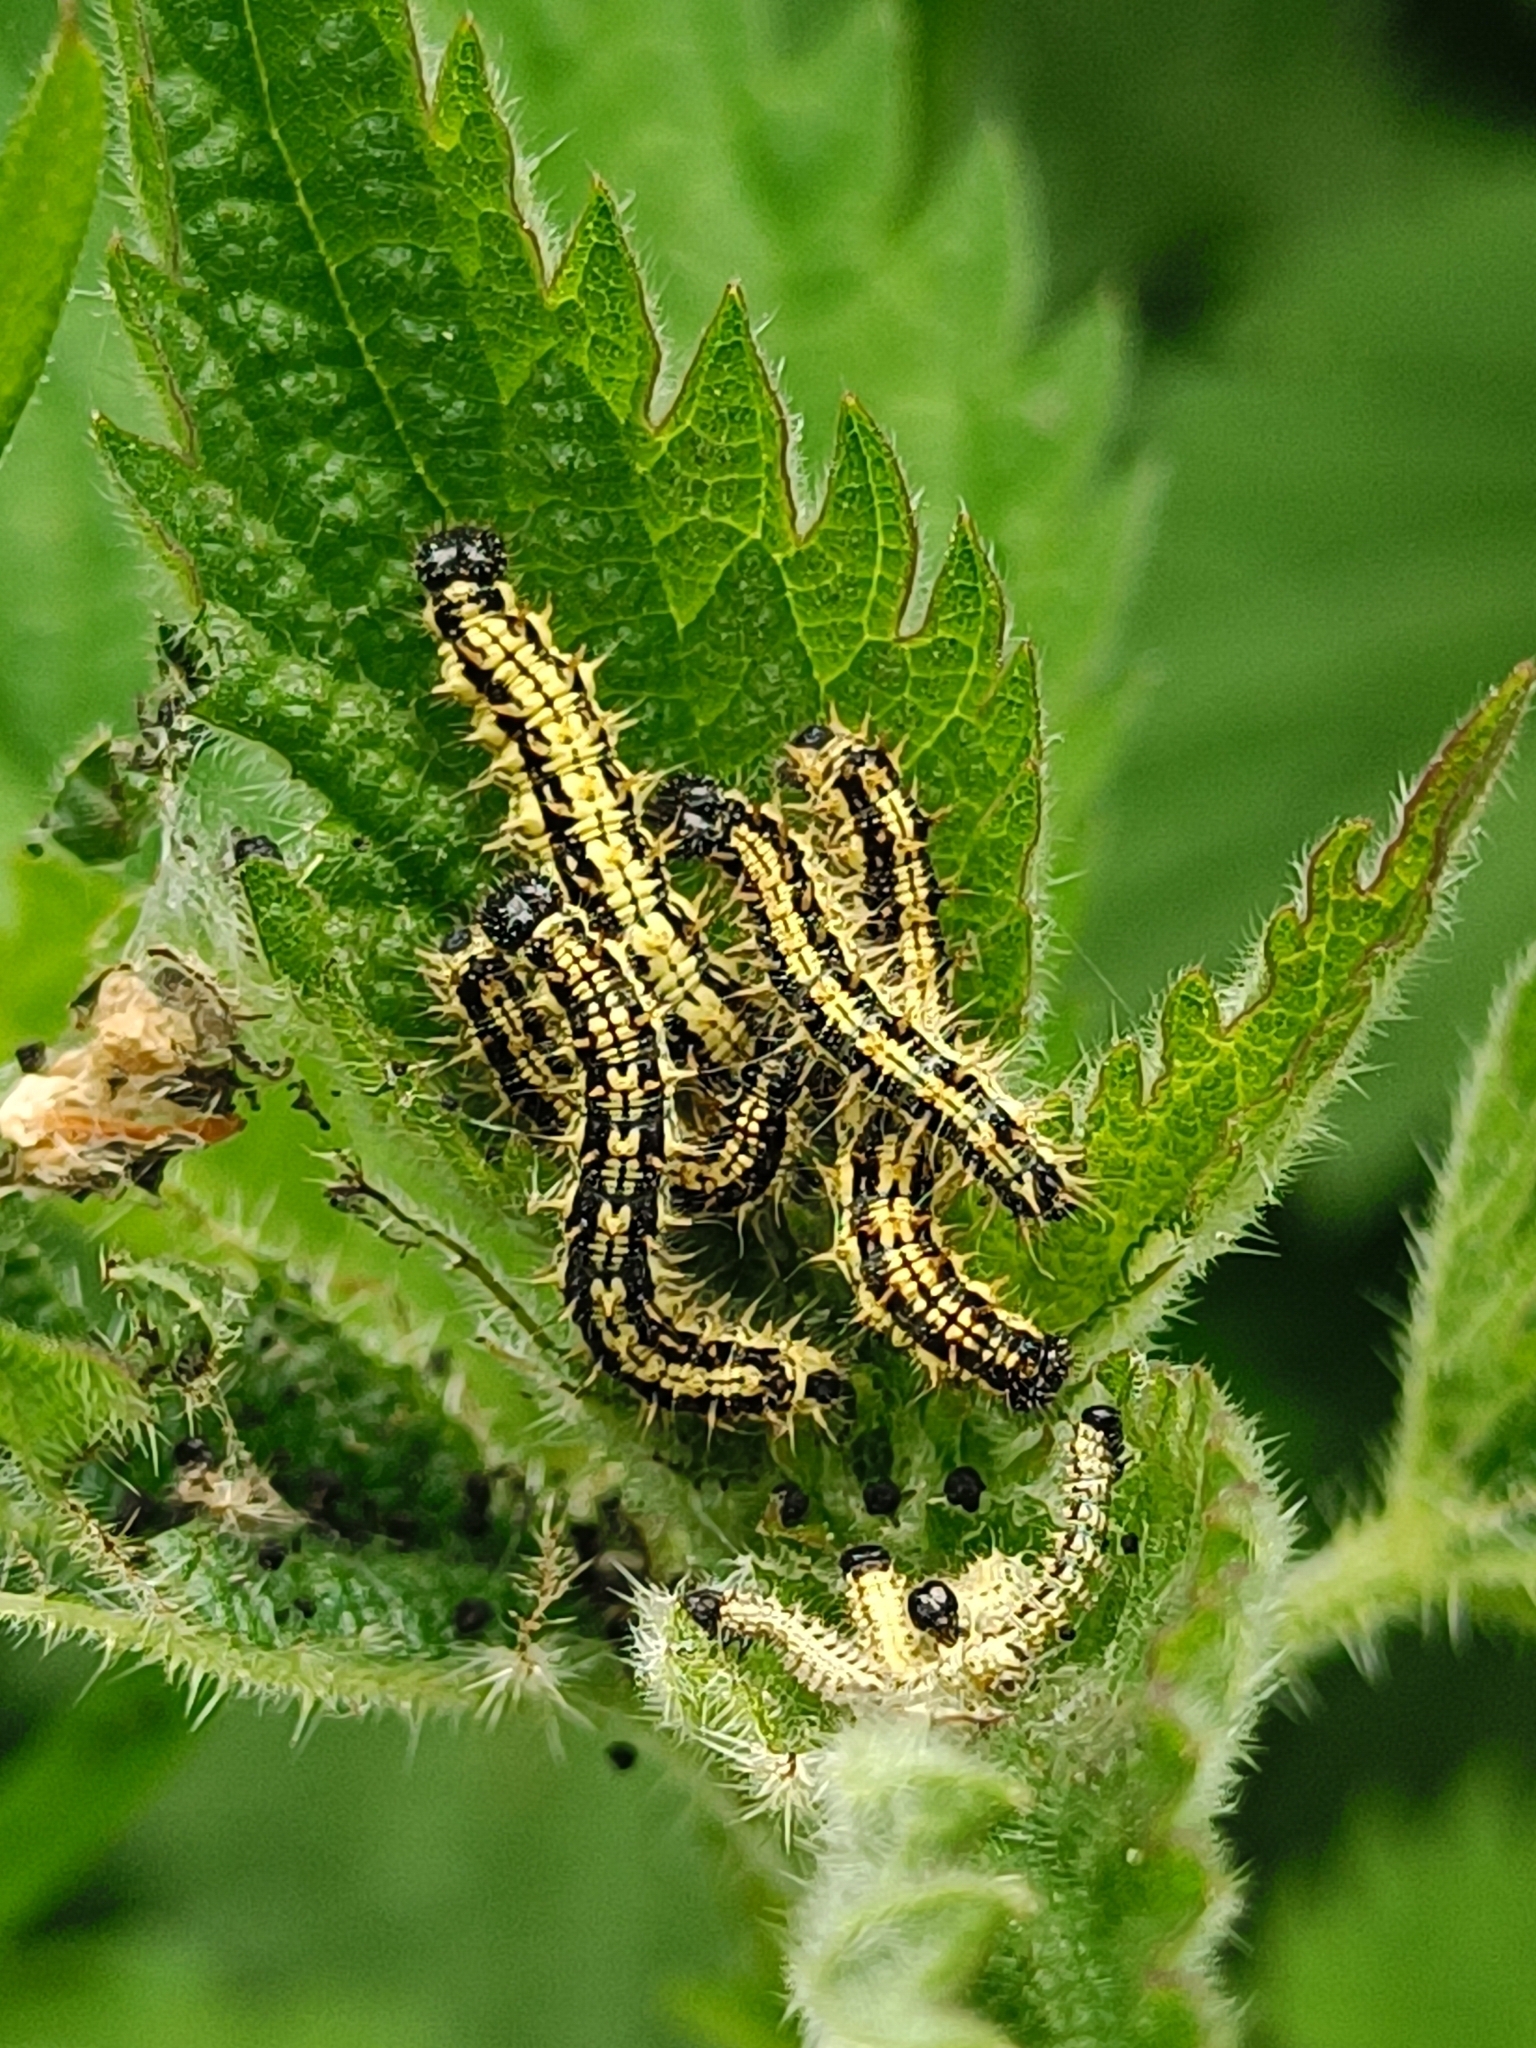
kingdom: Animalia
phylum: Arthropoda
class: Insecta
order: Lepidoptera
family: Nymphalidae
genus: Aglais
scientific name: Aglais urticae
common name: Small tortoiseshell
